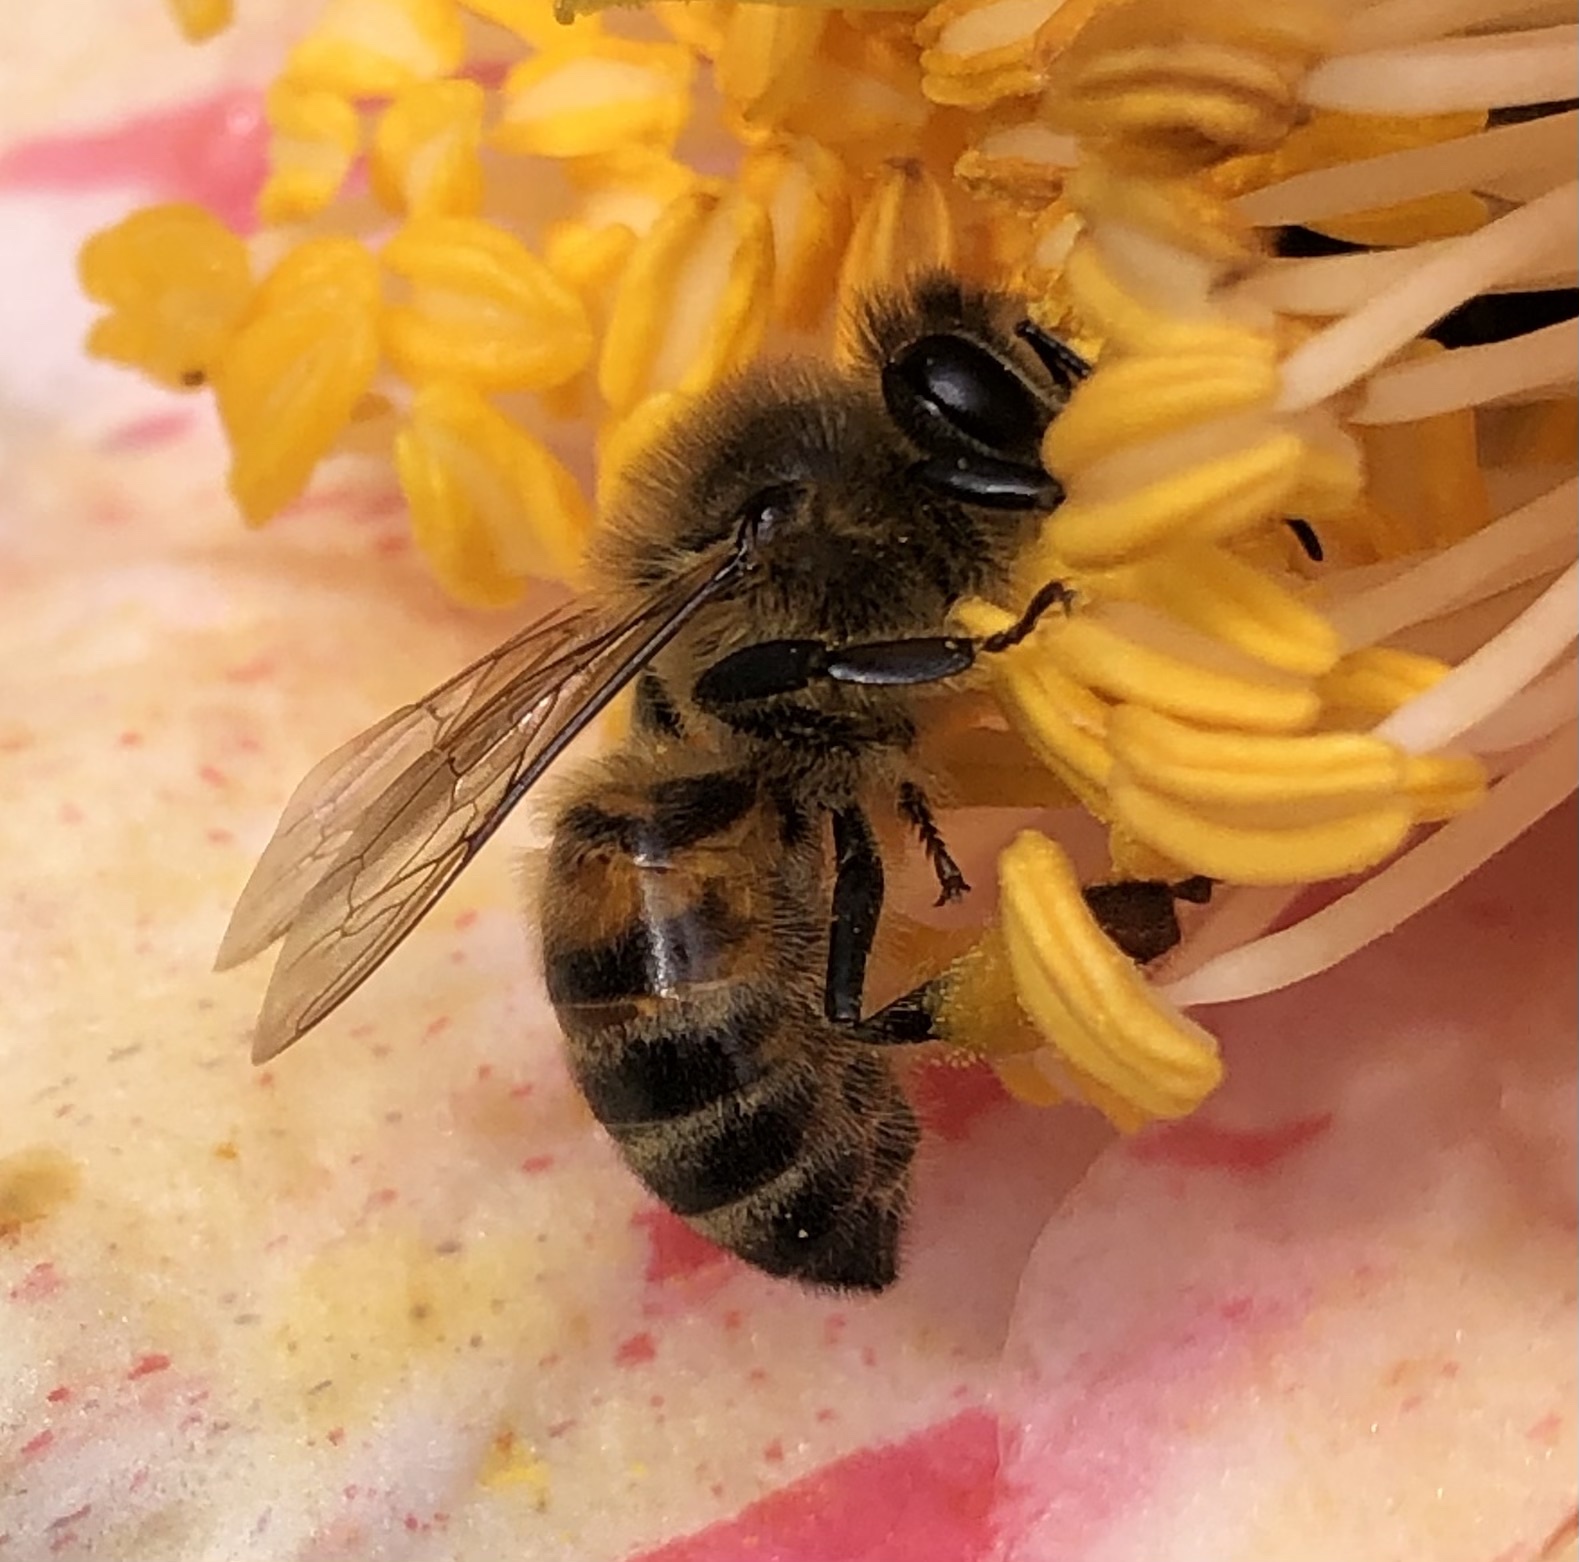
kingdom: Animalia
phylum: Arthropoda
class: Insecta
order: Hymenoptera
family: Apidae
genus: Apis
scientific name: Apis mellifera
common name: Honey bee
